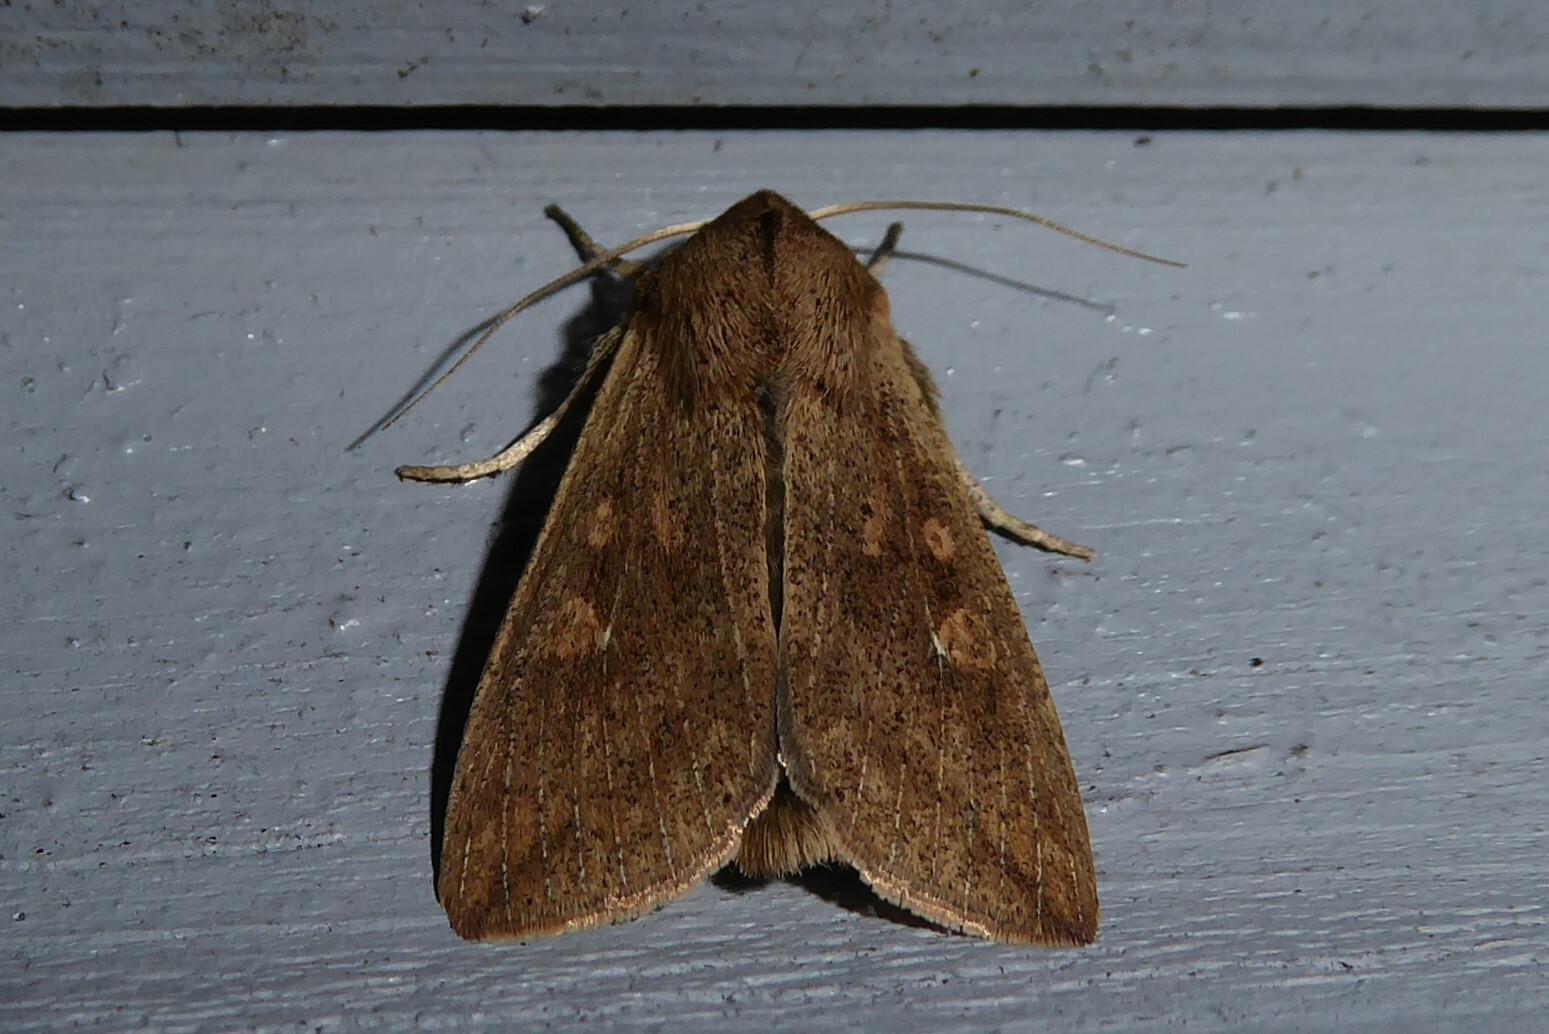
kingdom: Animalia
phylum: Arthropoda
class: Insecta
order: Lepidoptera
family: Noctuidae
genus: Mythimna
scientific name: Mythimna separata
